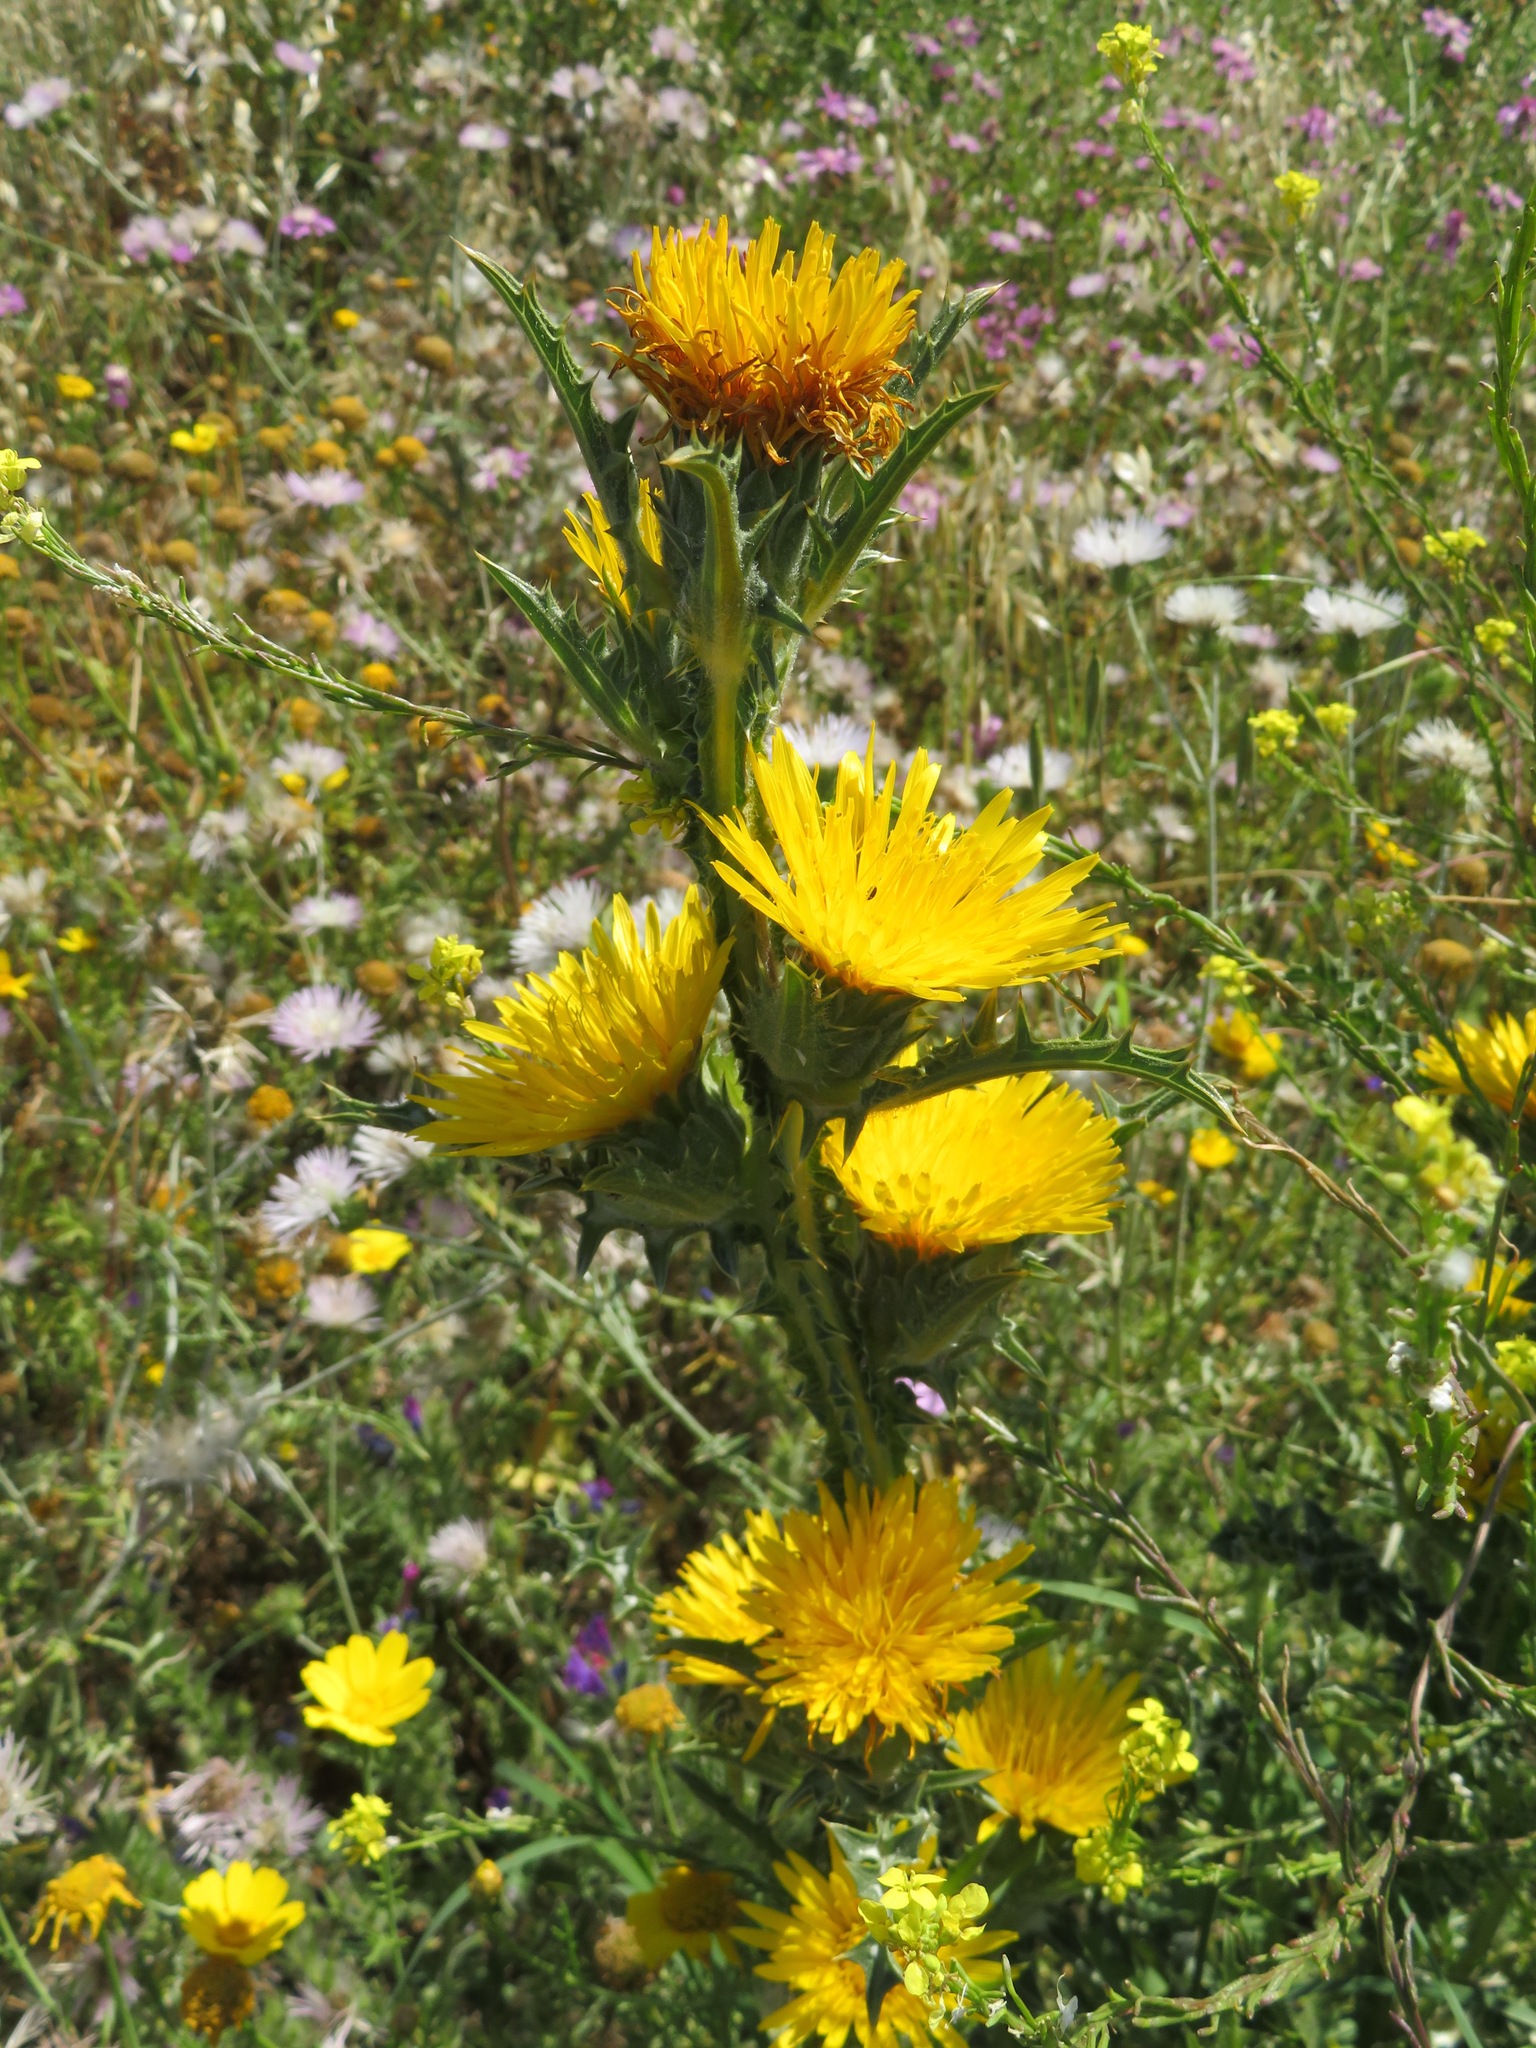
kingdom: Plantae
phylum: Tracheophyta
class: Magnoliopsida
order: Asterales
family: Asteraceae
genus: Scolymus
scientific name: Scolymus grandiflorus
